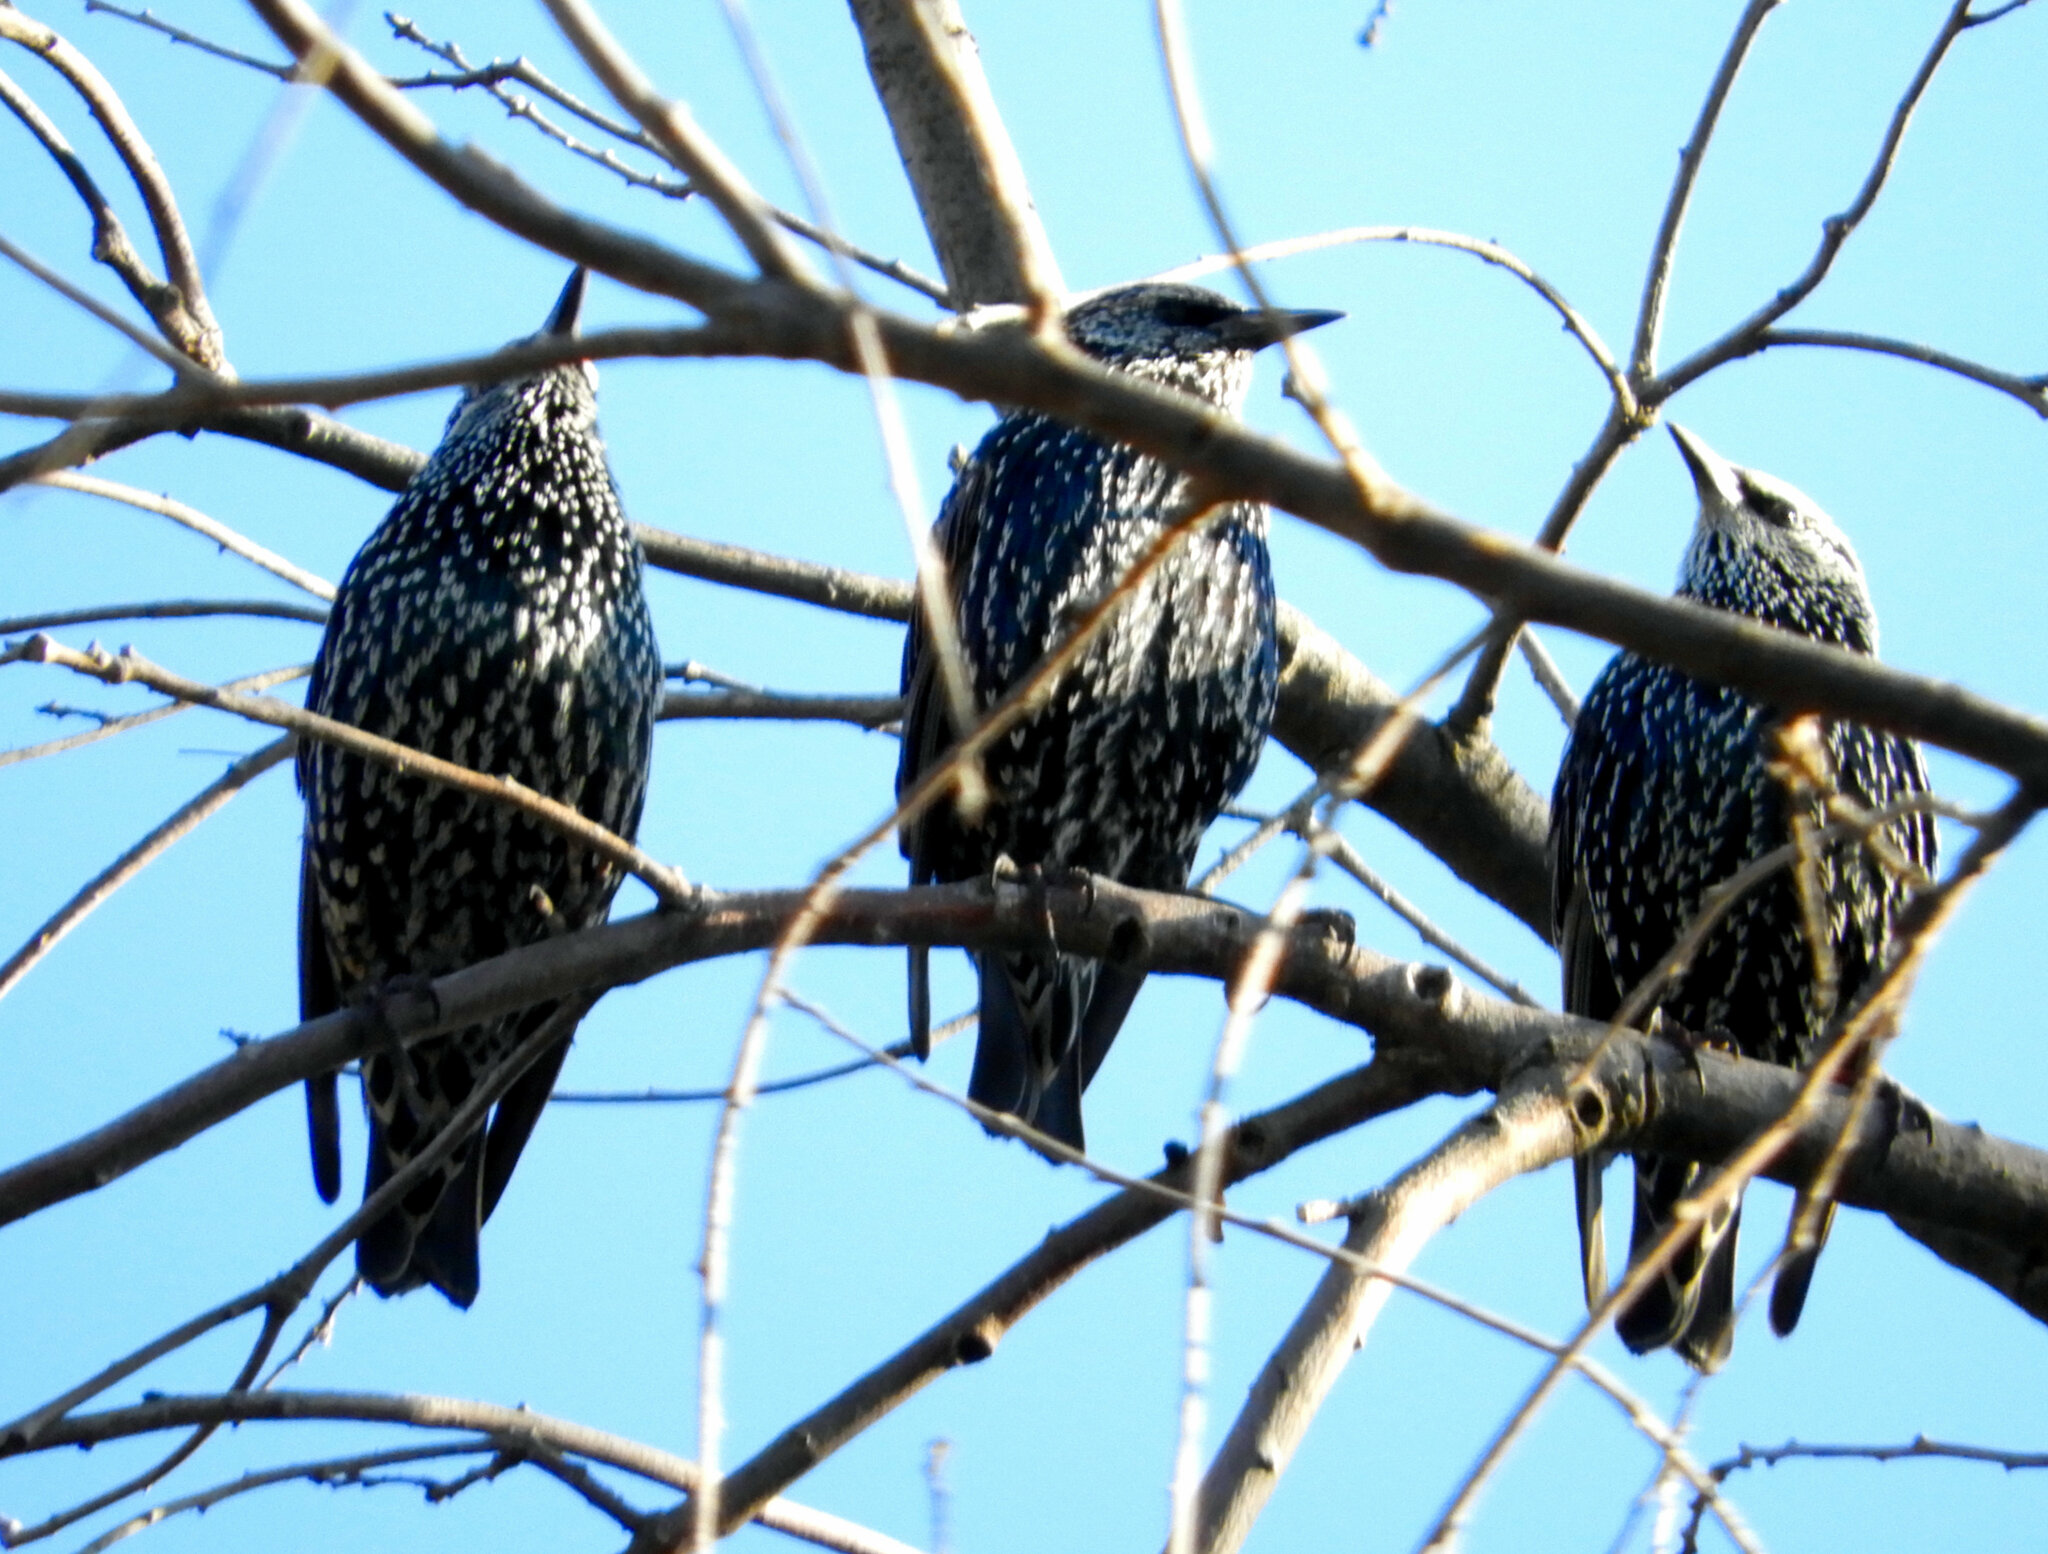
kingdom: Animalia
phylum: Chordata
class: Aves
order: Passeriformes
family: Sturnidae
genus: Sturnus
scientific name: Sturnus vulgaris
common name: Common starling
